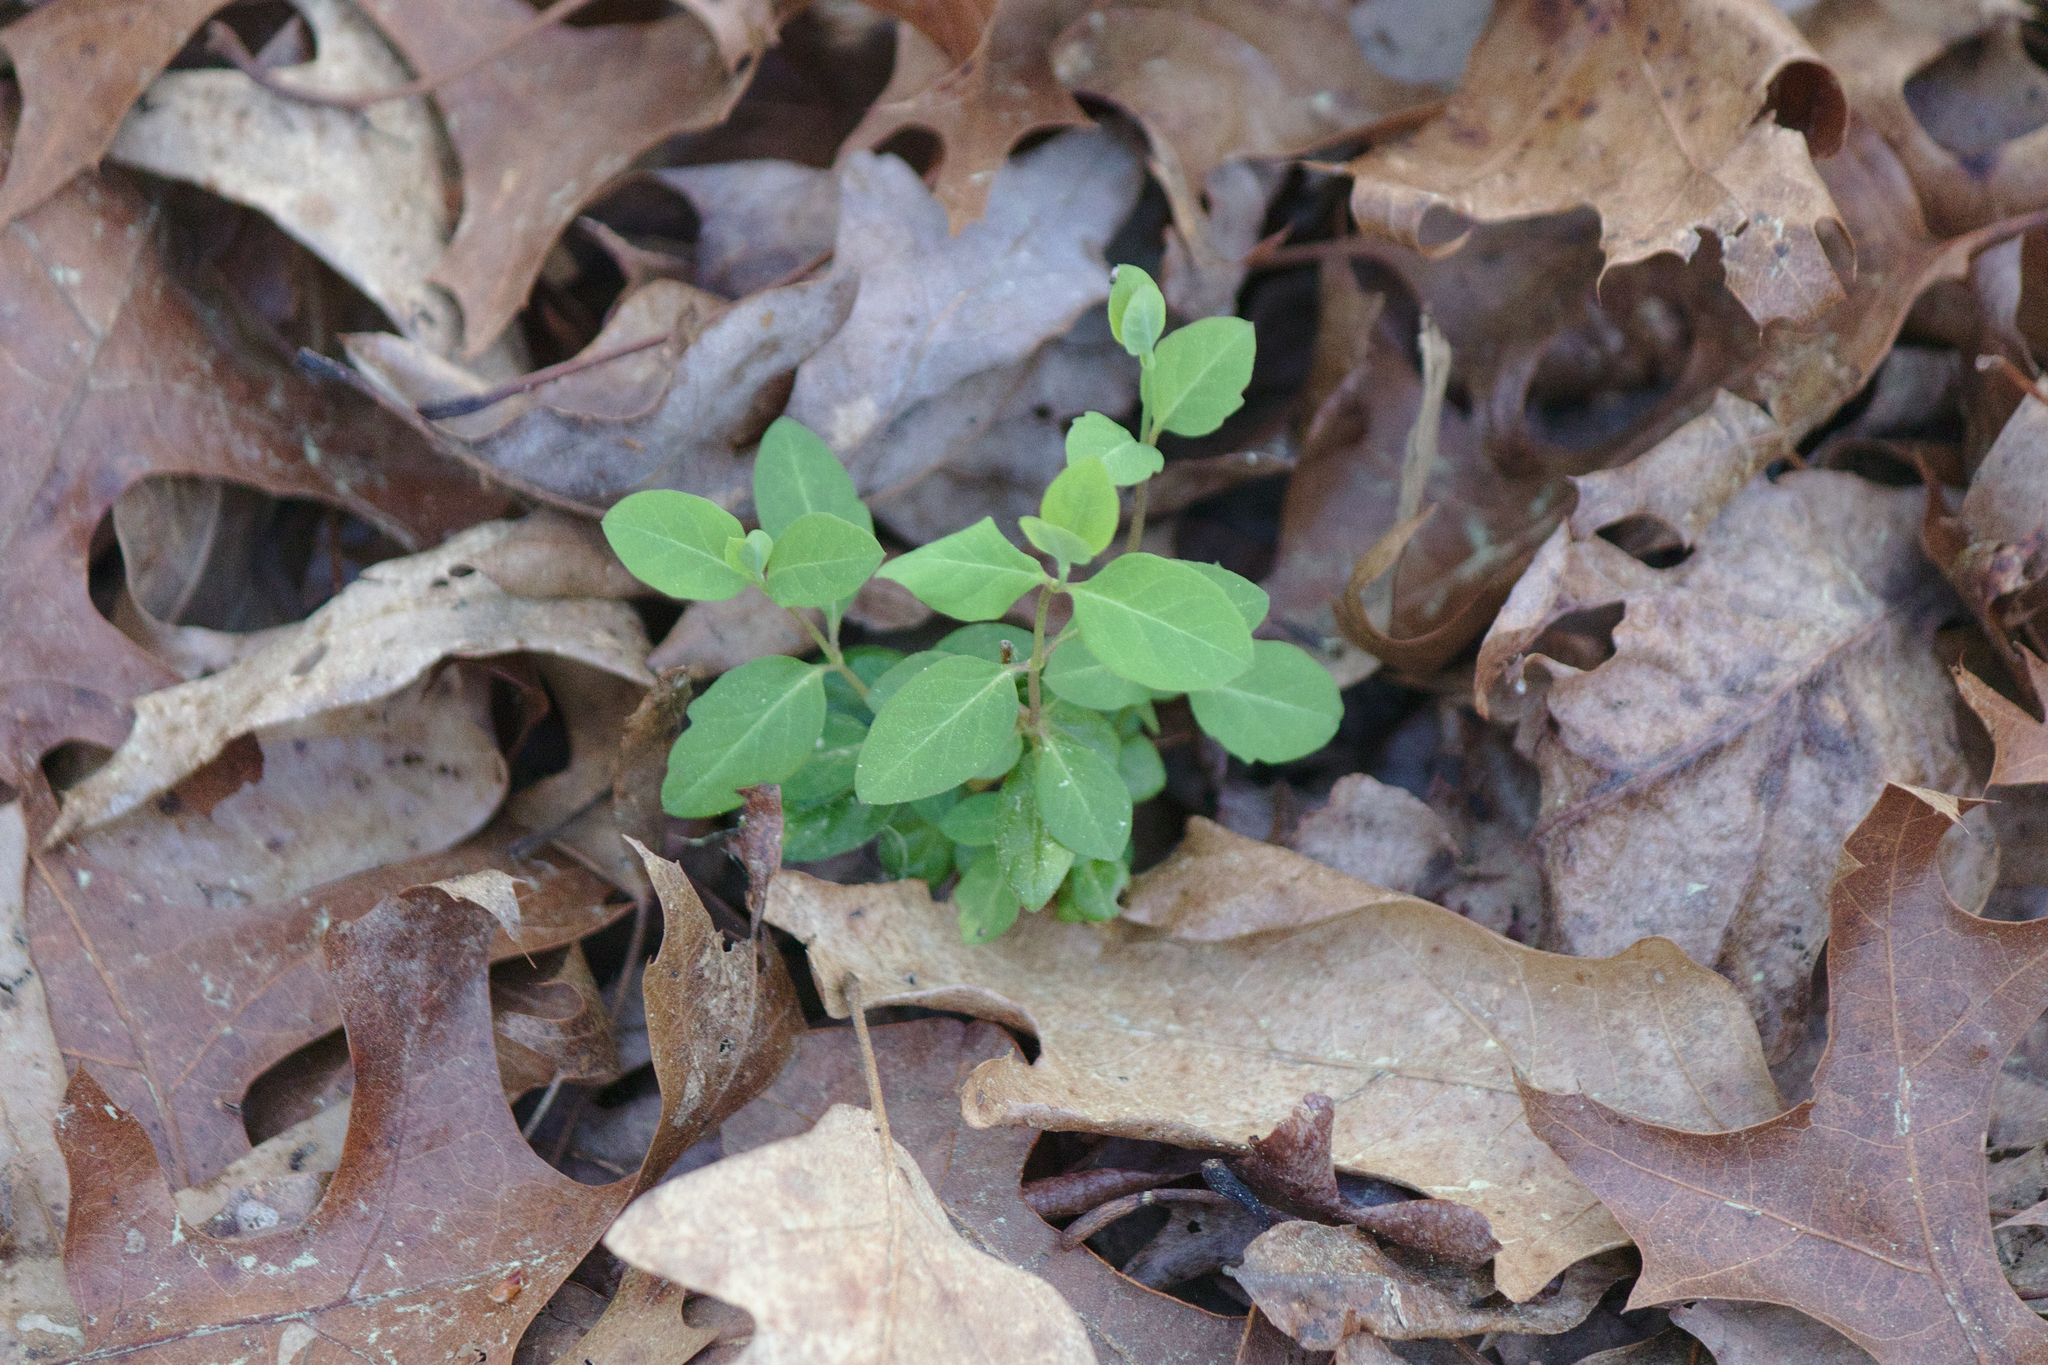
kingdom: Plantae
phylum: Tracheophyta
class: Magnoliopsida
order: Dipsacales
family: Caprifoliaceae
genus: Lonicera
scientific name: Lonicera japonica
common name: Japanese honeysuckle
